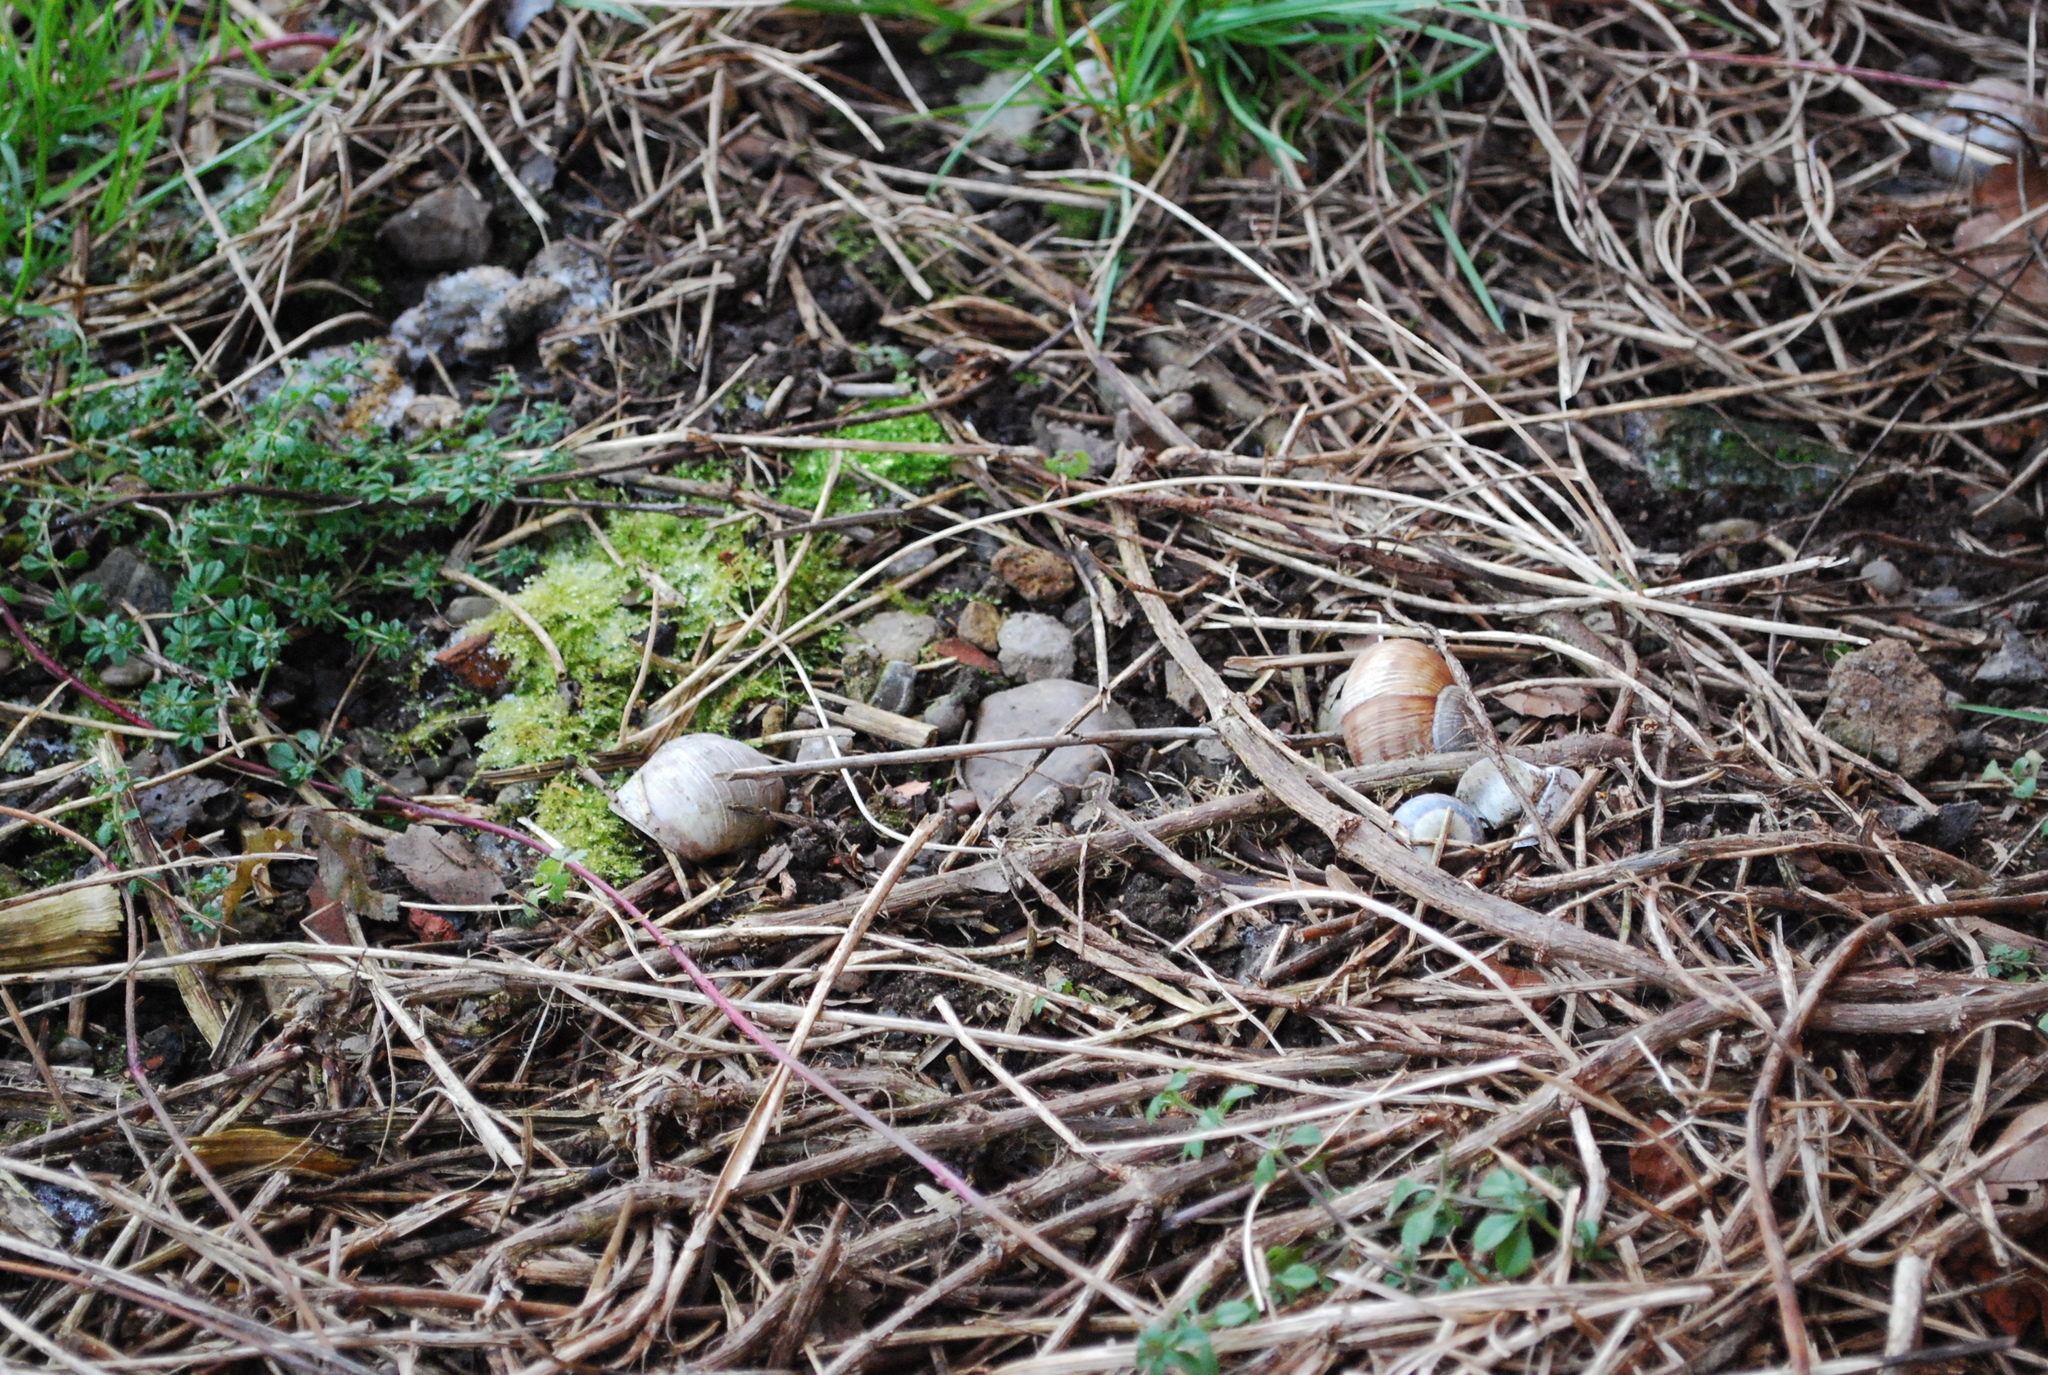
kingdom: Animalia
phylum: Mollusca
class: Gastropoda
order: Stylommatophora
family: Helicidae
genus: Helix
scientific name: Helix pomatia
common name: Roman snail
